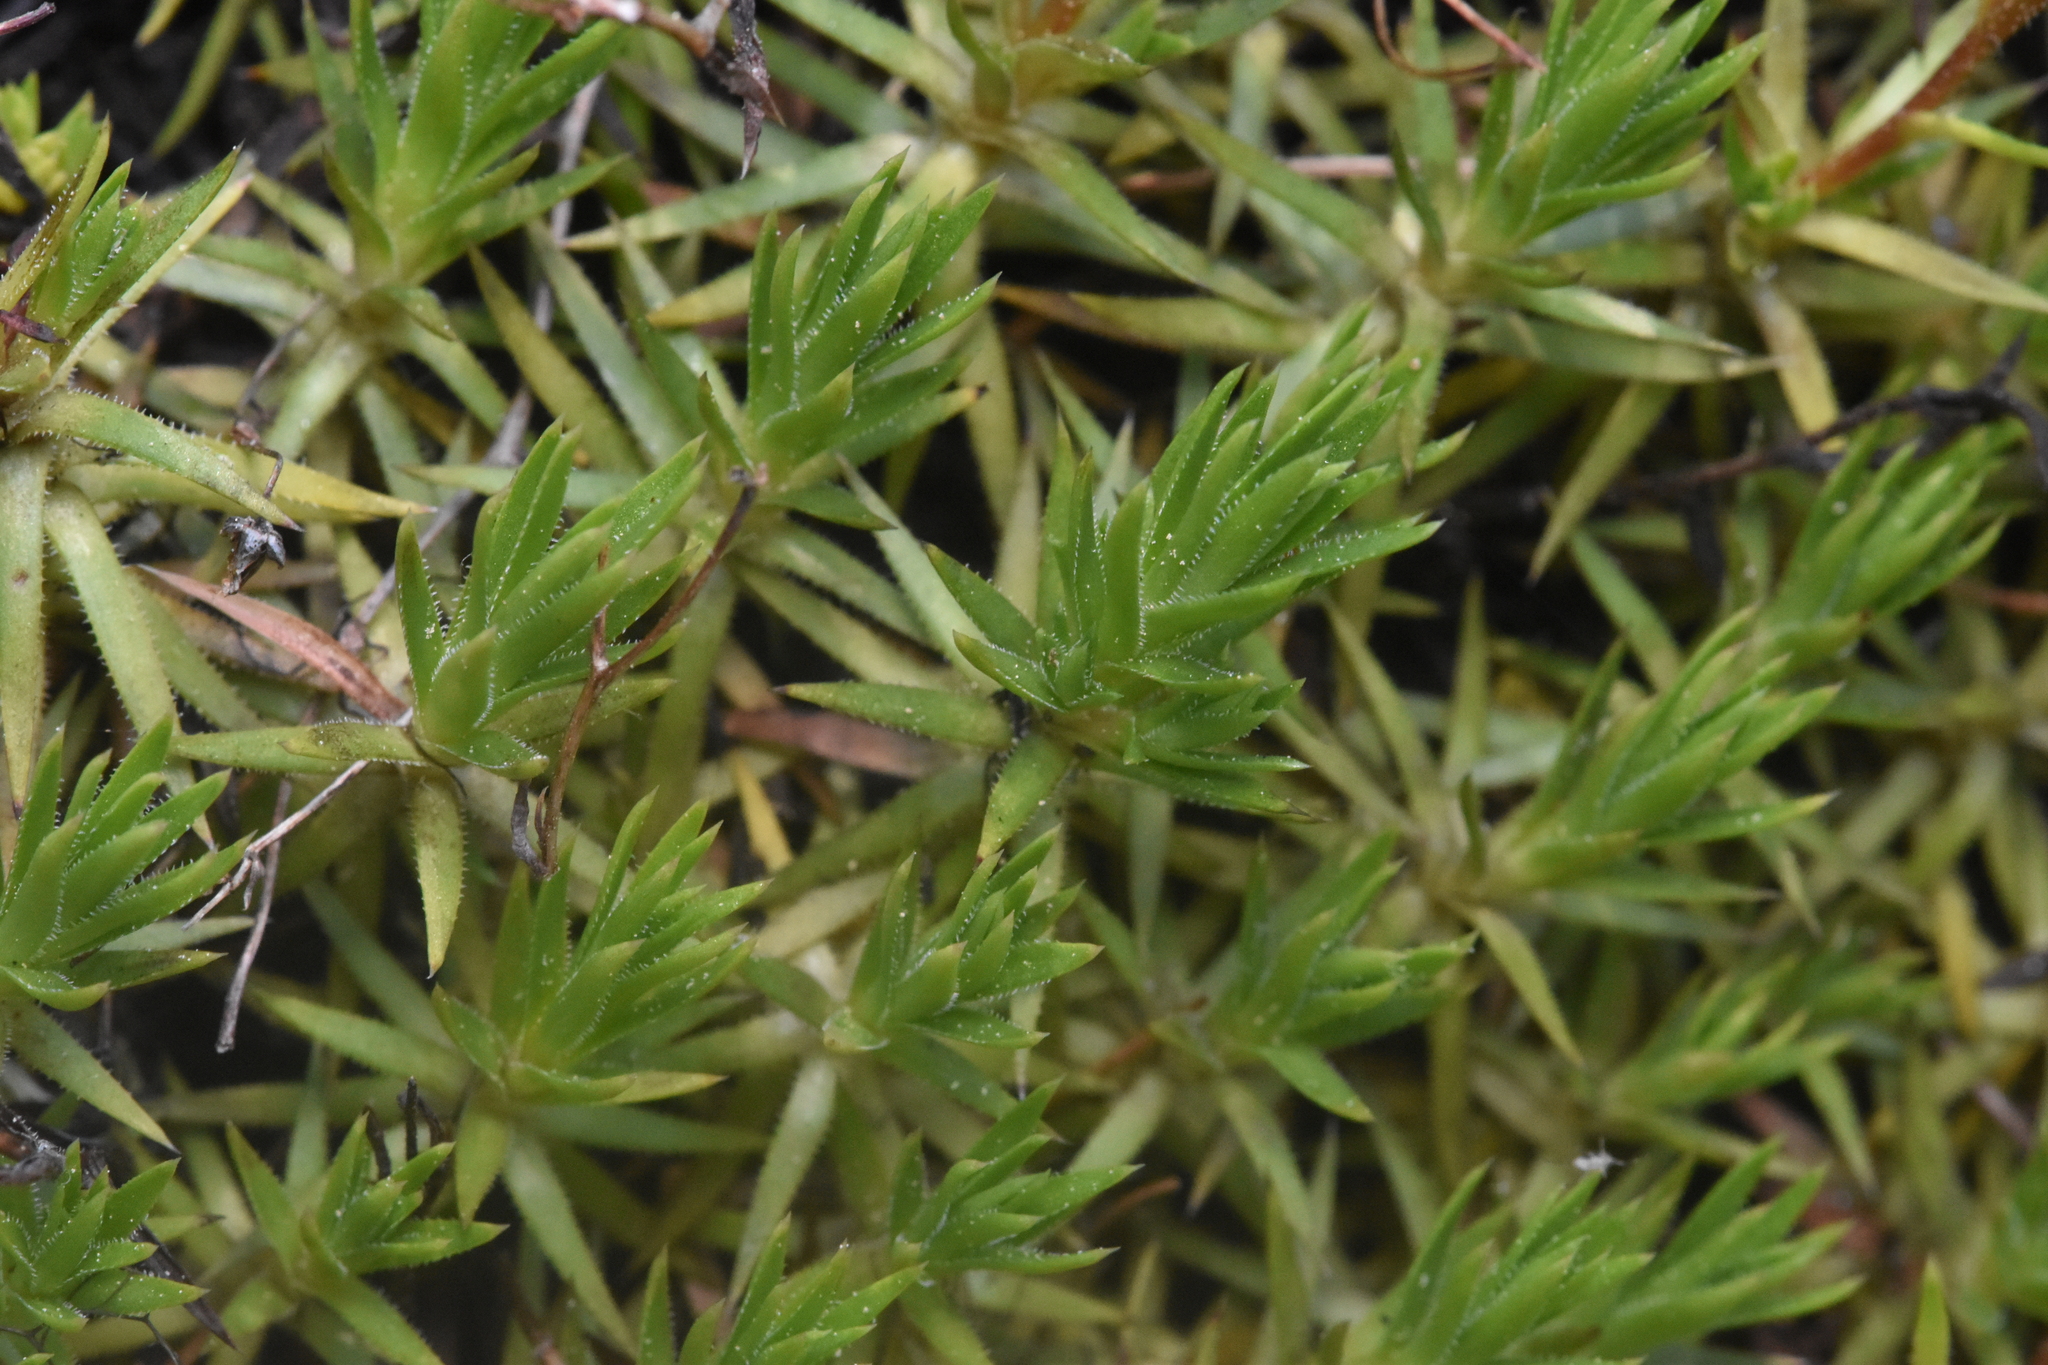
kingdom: Plantae
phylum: Tracheophyta
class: Magnoliopsida
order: Saxifragales
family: Saxifragaceae
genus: Saxifraga
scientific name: Saxifraga bronchialis
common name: Matted saxifrage
